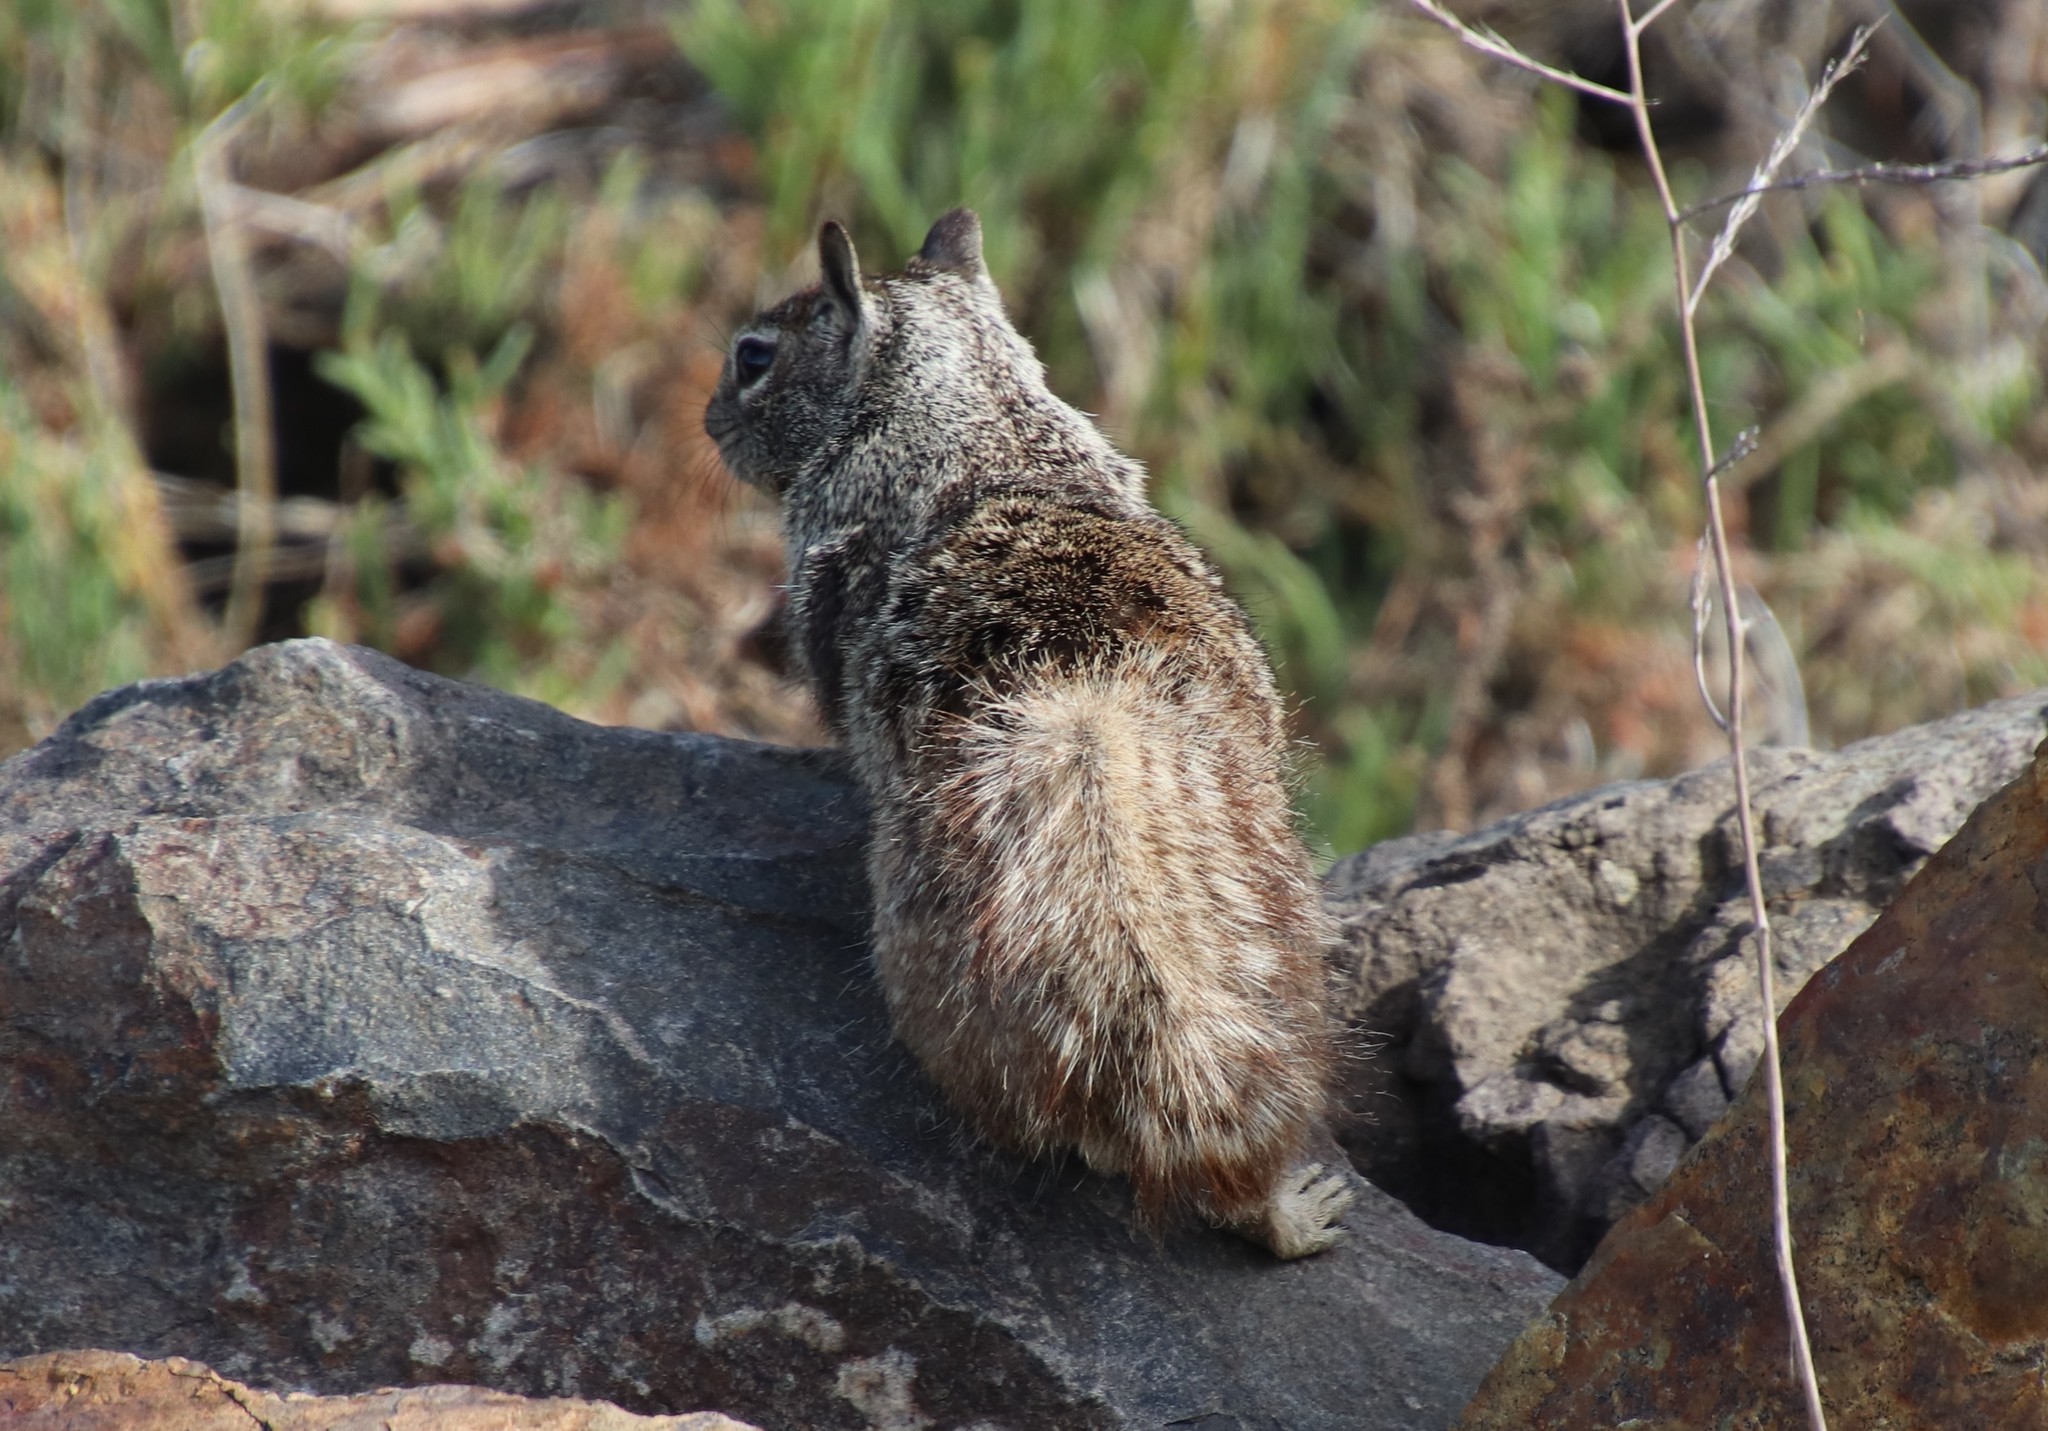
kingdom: Animalia
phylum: Chordata
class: Mammalia
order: Rodentia
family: Sciuridae
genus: Otospermophilus
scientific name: Otospermophilus beecheyi
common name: California ground squirrel
